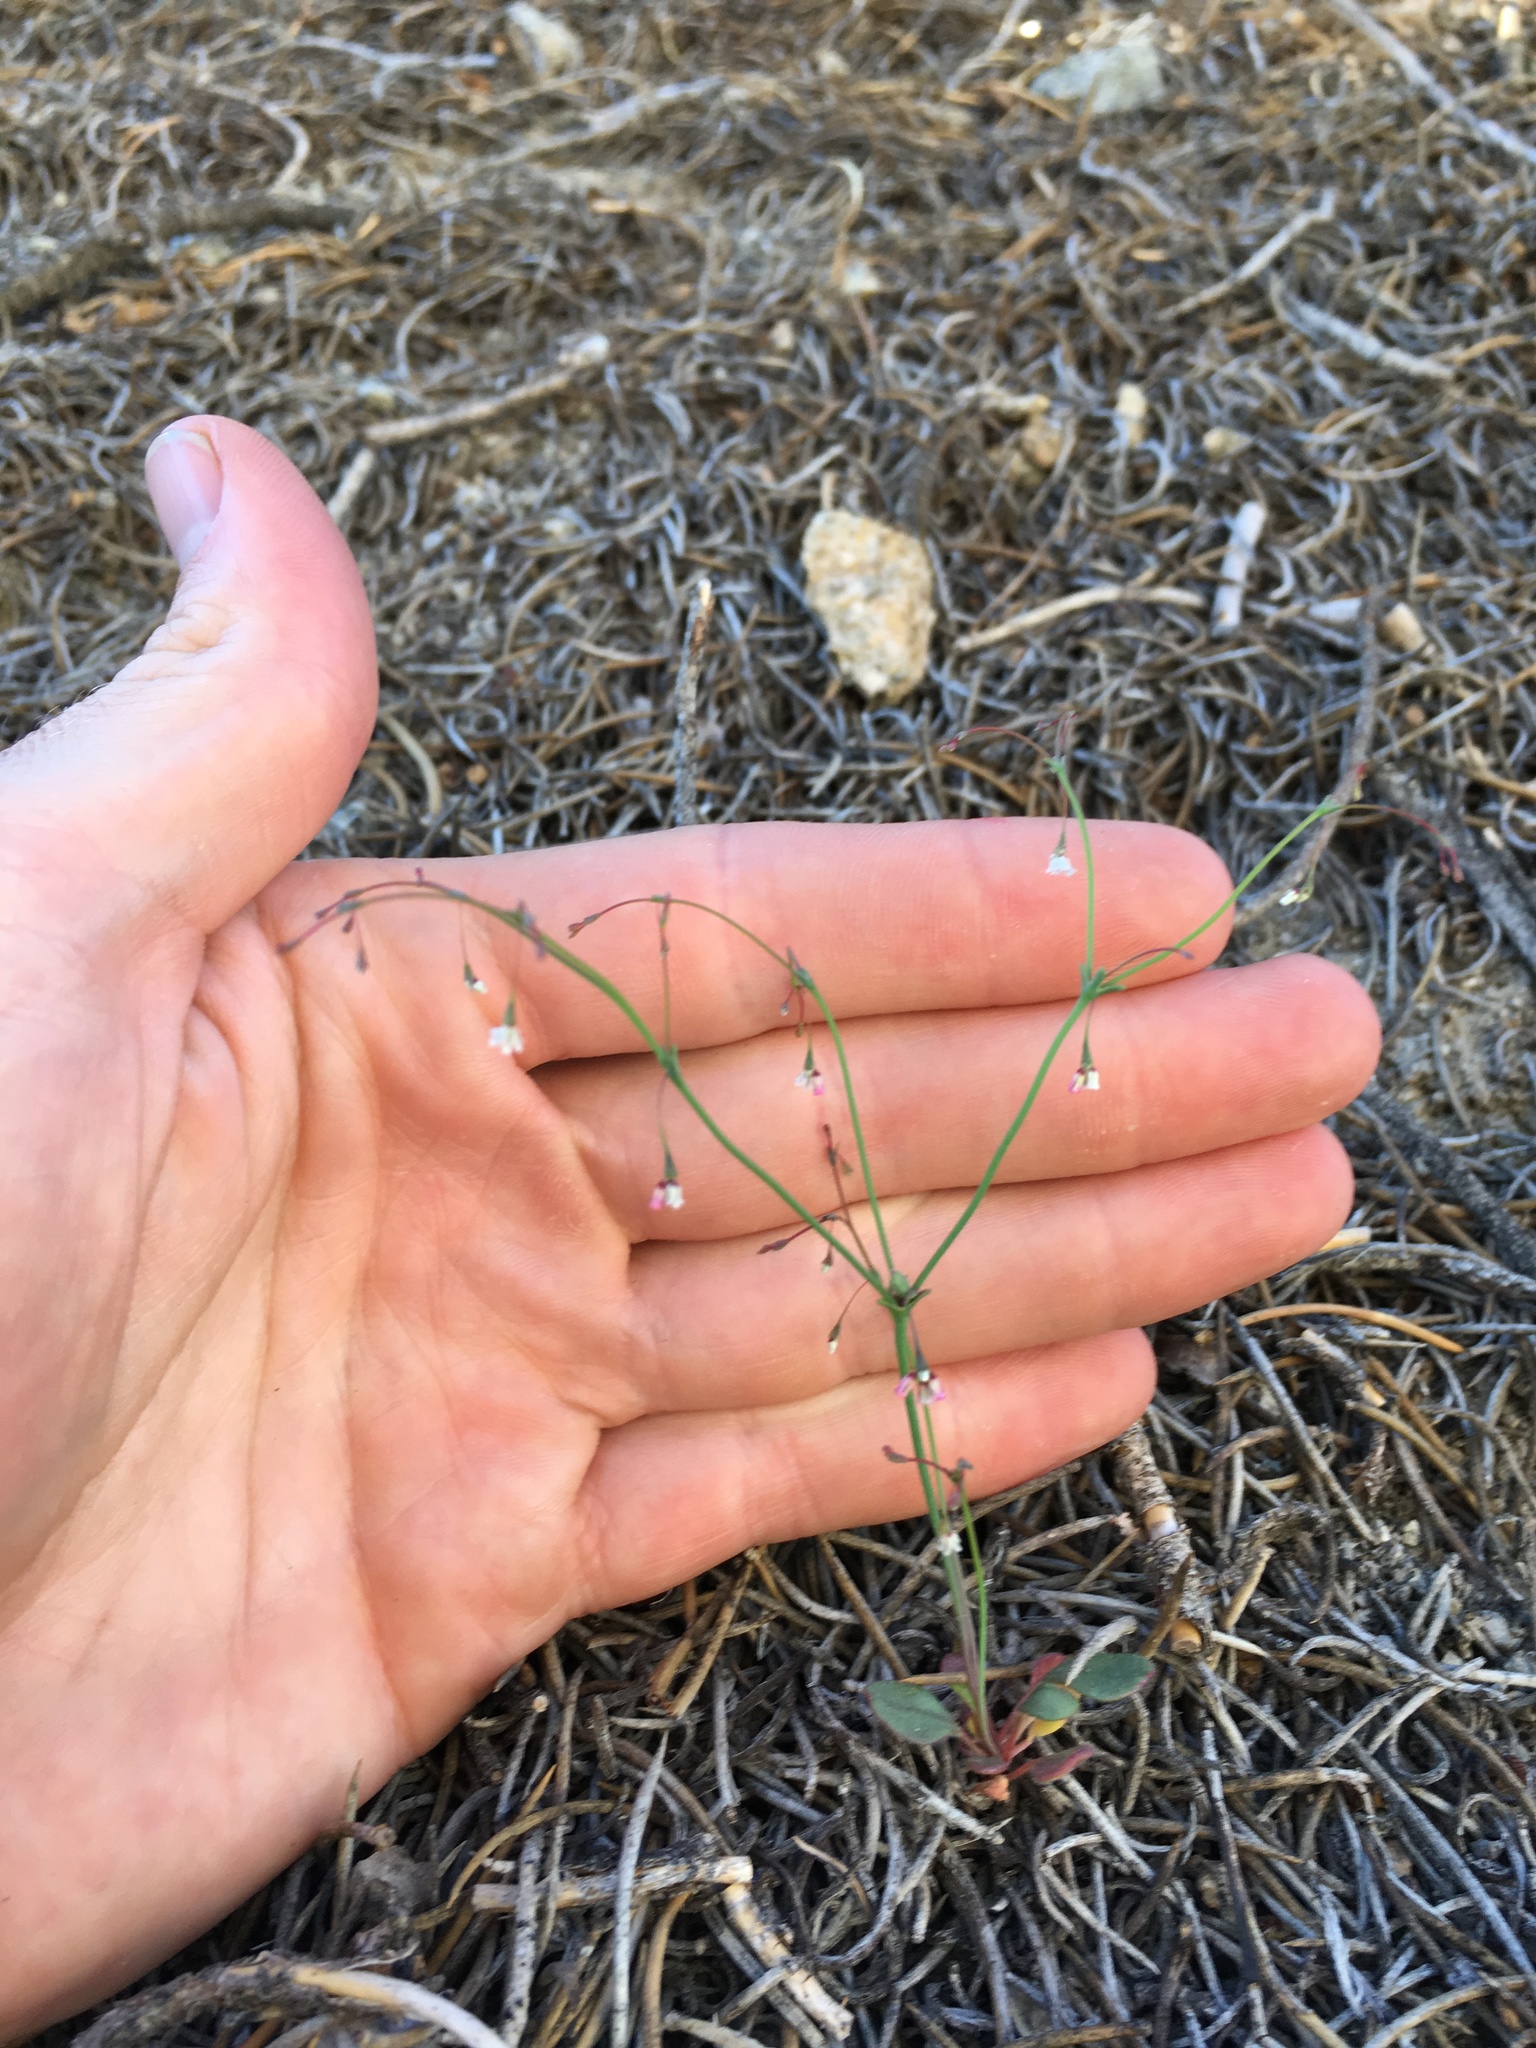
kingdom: Plantae
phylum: Tracheophyta
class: Magnoliopsida
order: Caryophyllales
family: Polygonaceae
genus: Eriogonum
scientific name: Eriogonum esmeraldense
